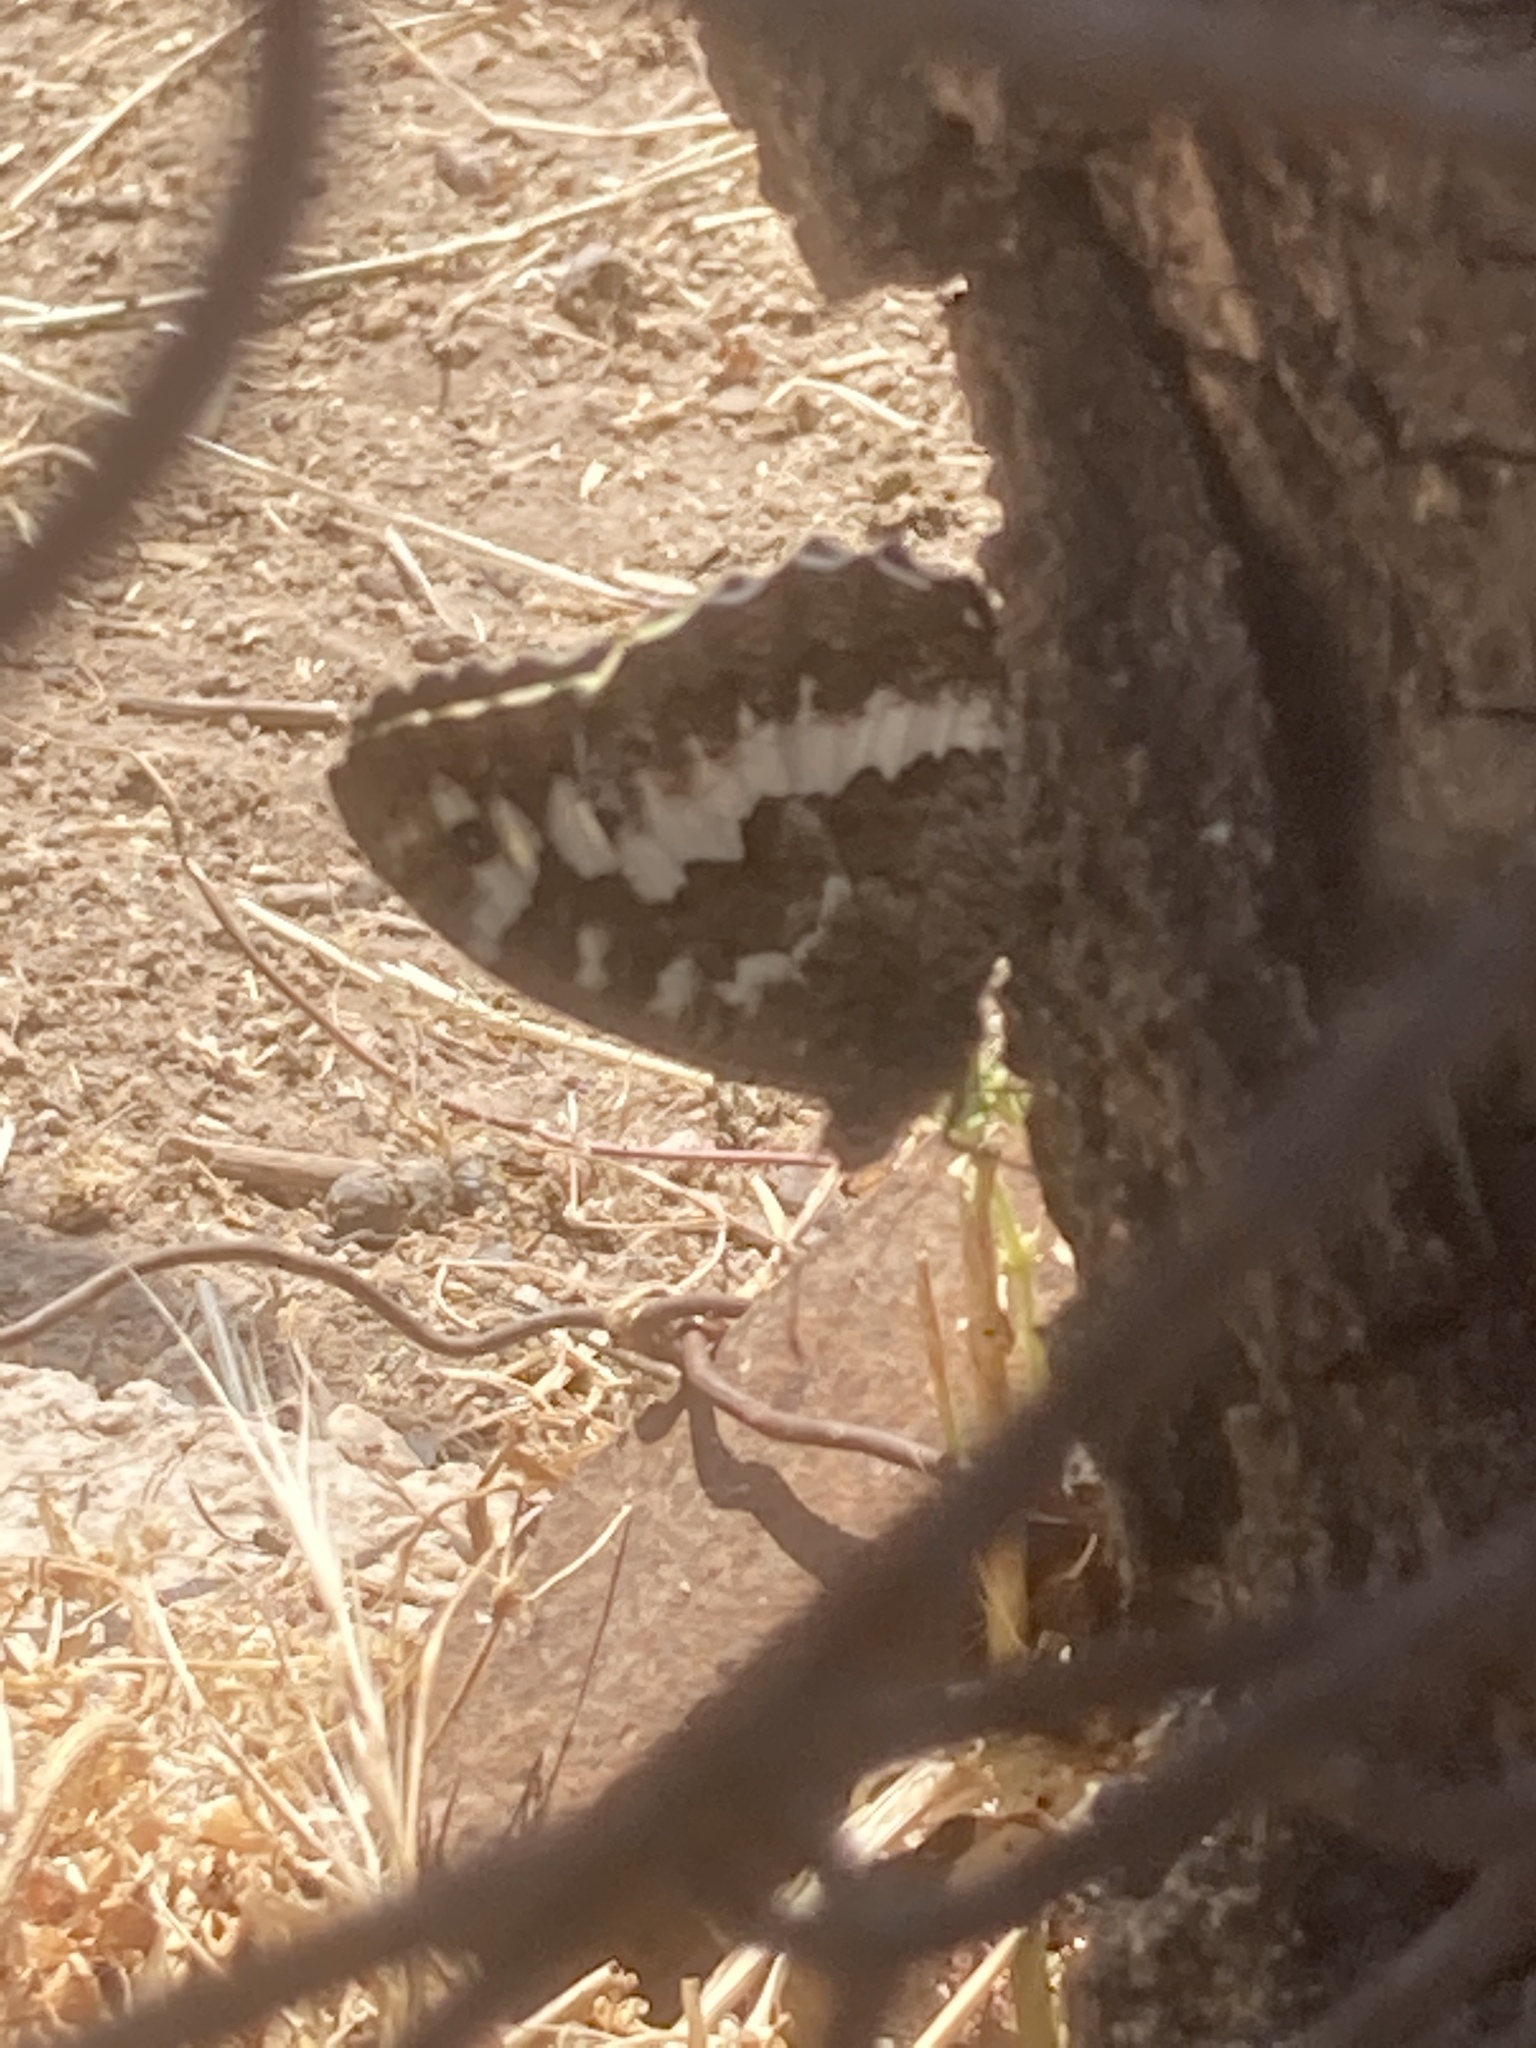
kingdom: Animalia
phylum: Arthropoda
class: Insecta
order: Lepidoptera
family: Lycaenidae
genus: Loweia
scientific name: Loweia tityrus
